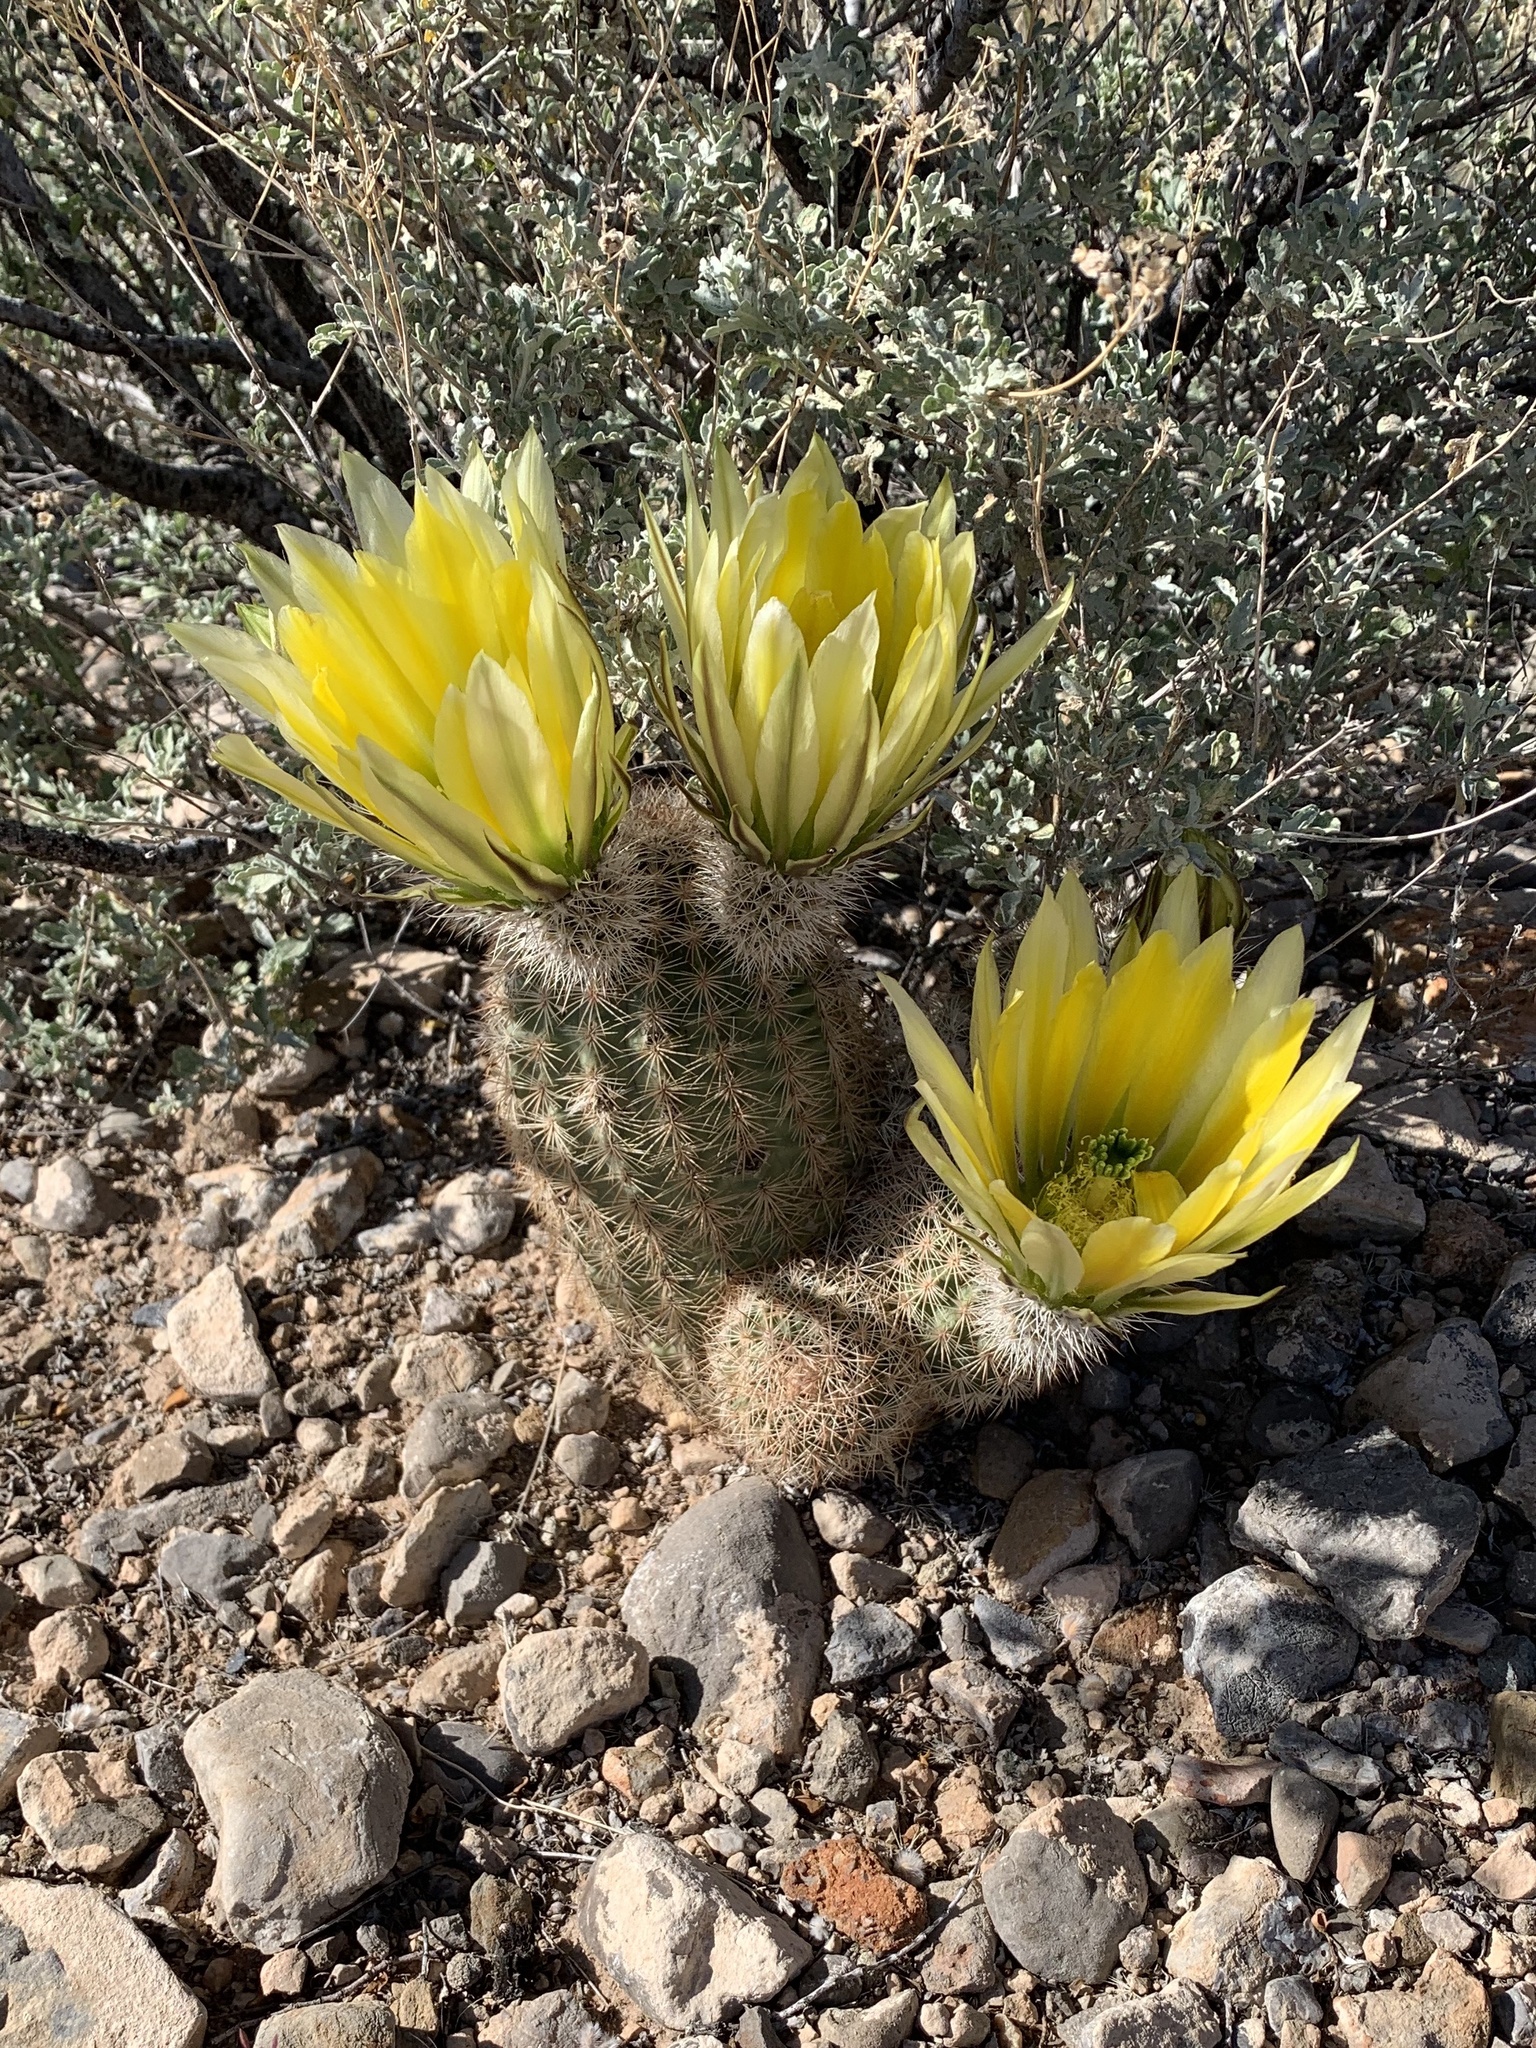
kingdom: Plantae
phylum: Tracheophyta
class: Magnoliopsida
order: Caryophyllales
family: Cactaceae
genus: Echinocereus
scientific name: Echinocereus dasyacanthus
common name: Spiny hedgehog cactus
